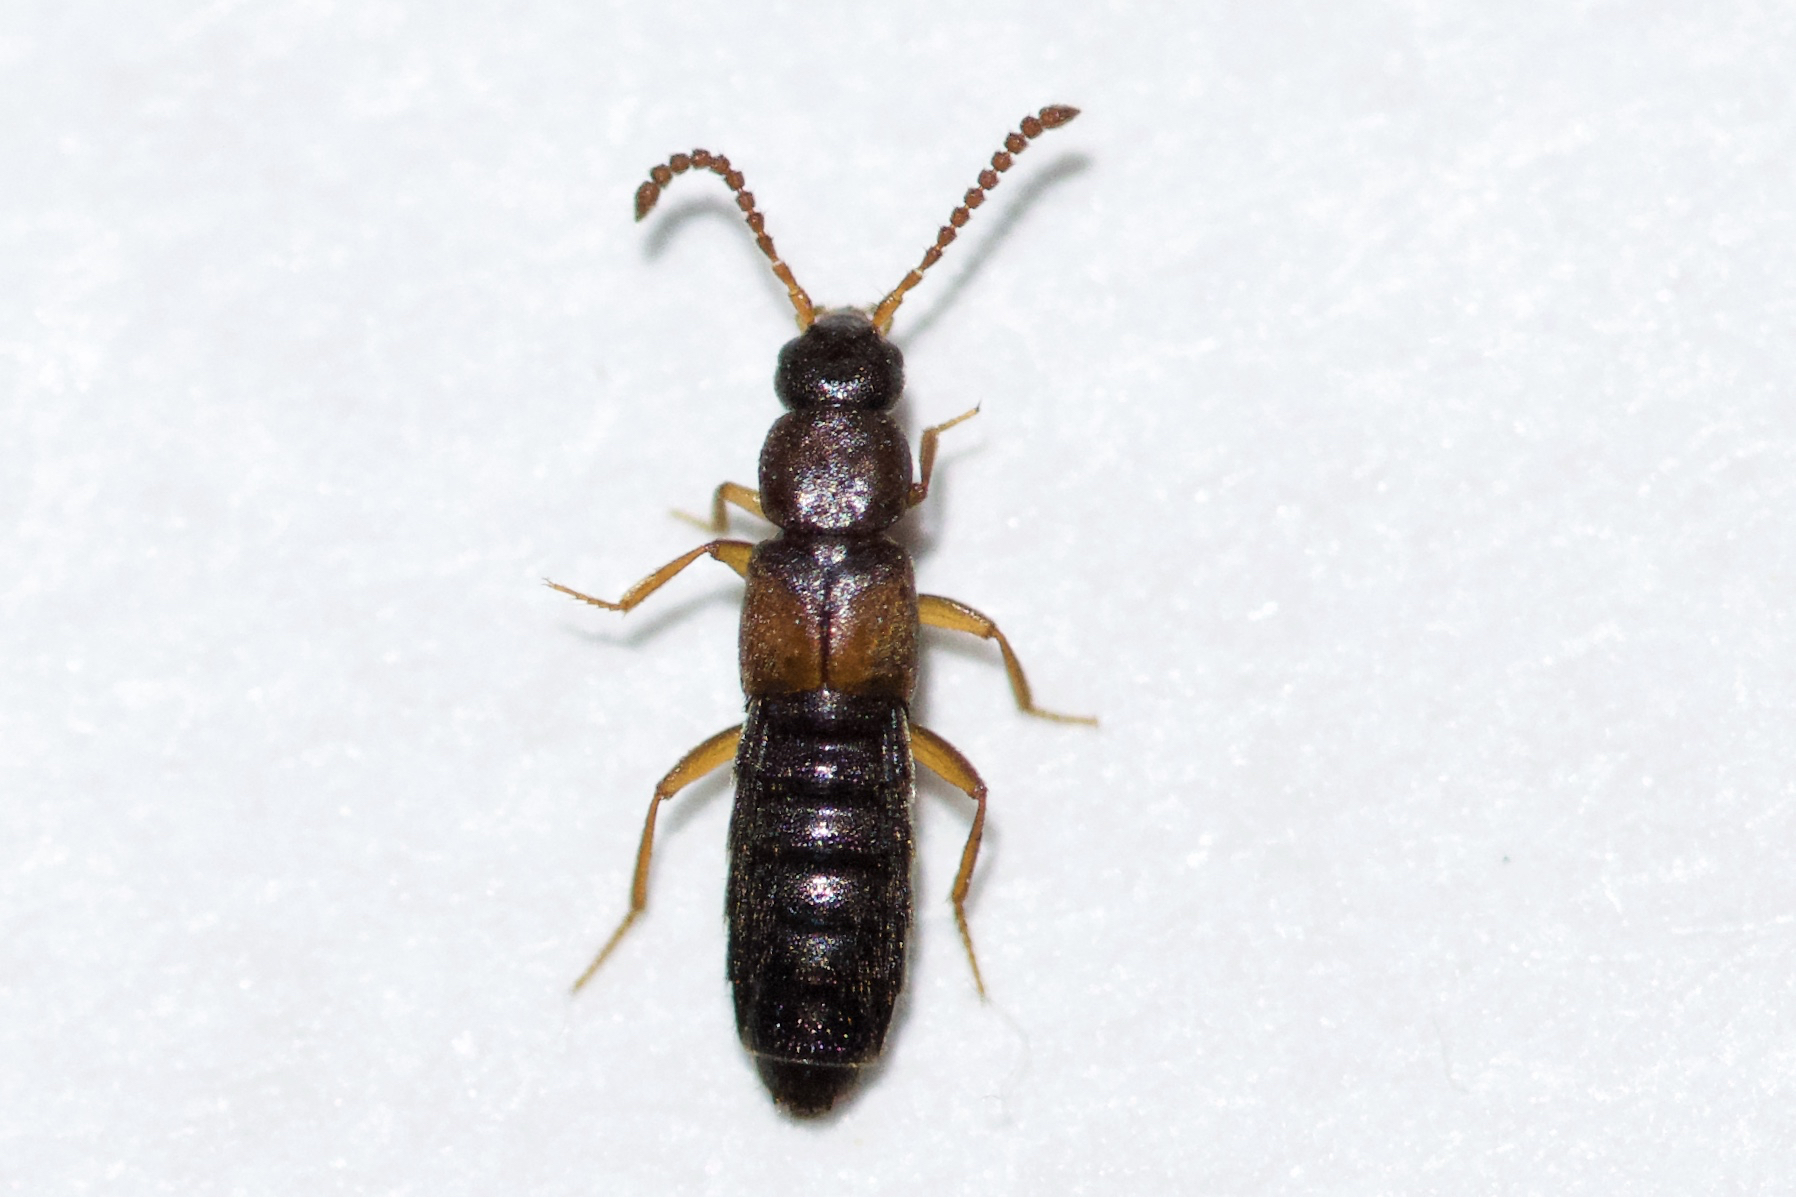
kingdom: Animalia
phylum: Arthropoda
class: Insecta
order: Coleoptera
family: Staphylinidae
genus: Dinaraea
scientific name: Dinaraea angustula
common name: Staphylinid beetle
